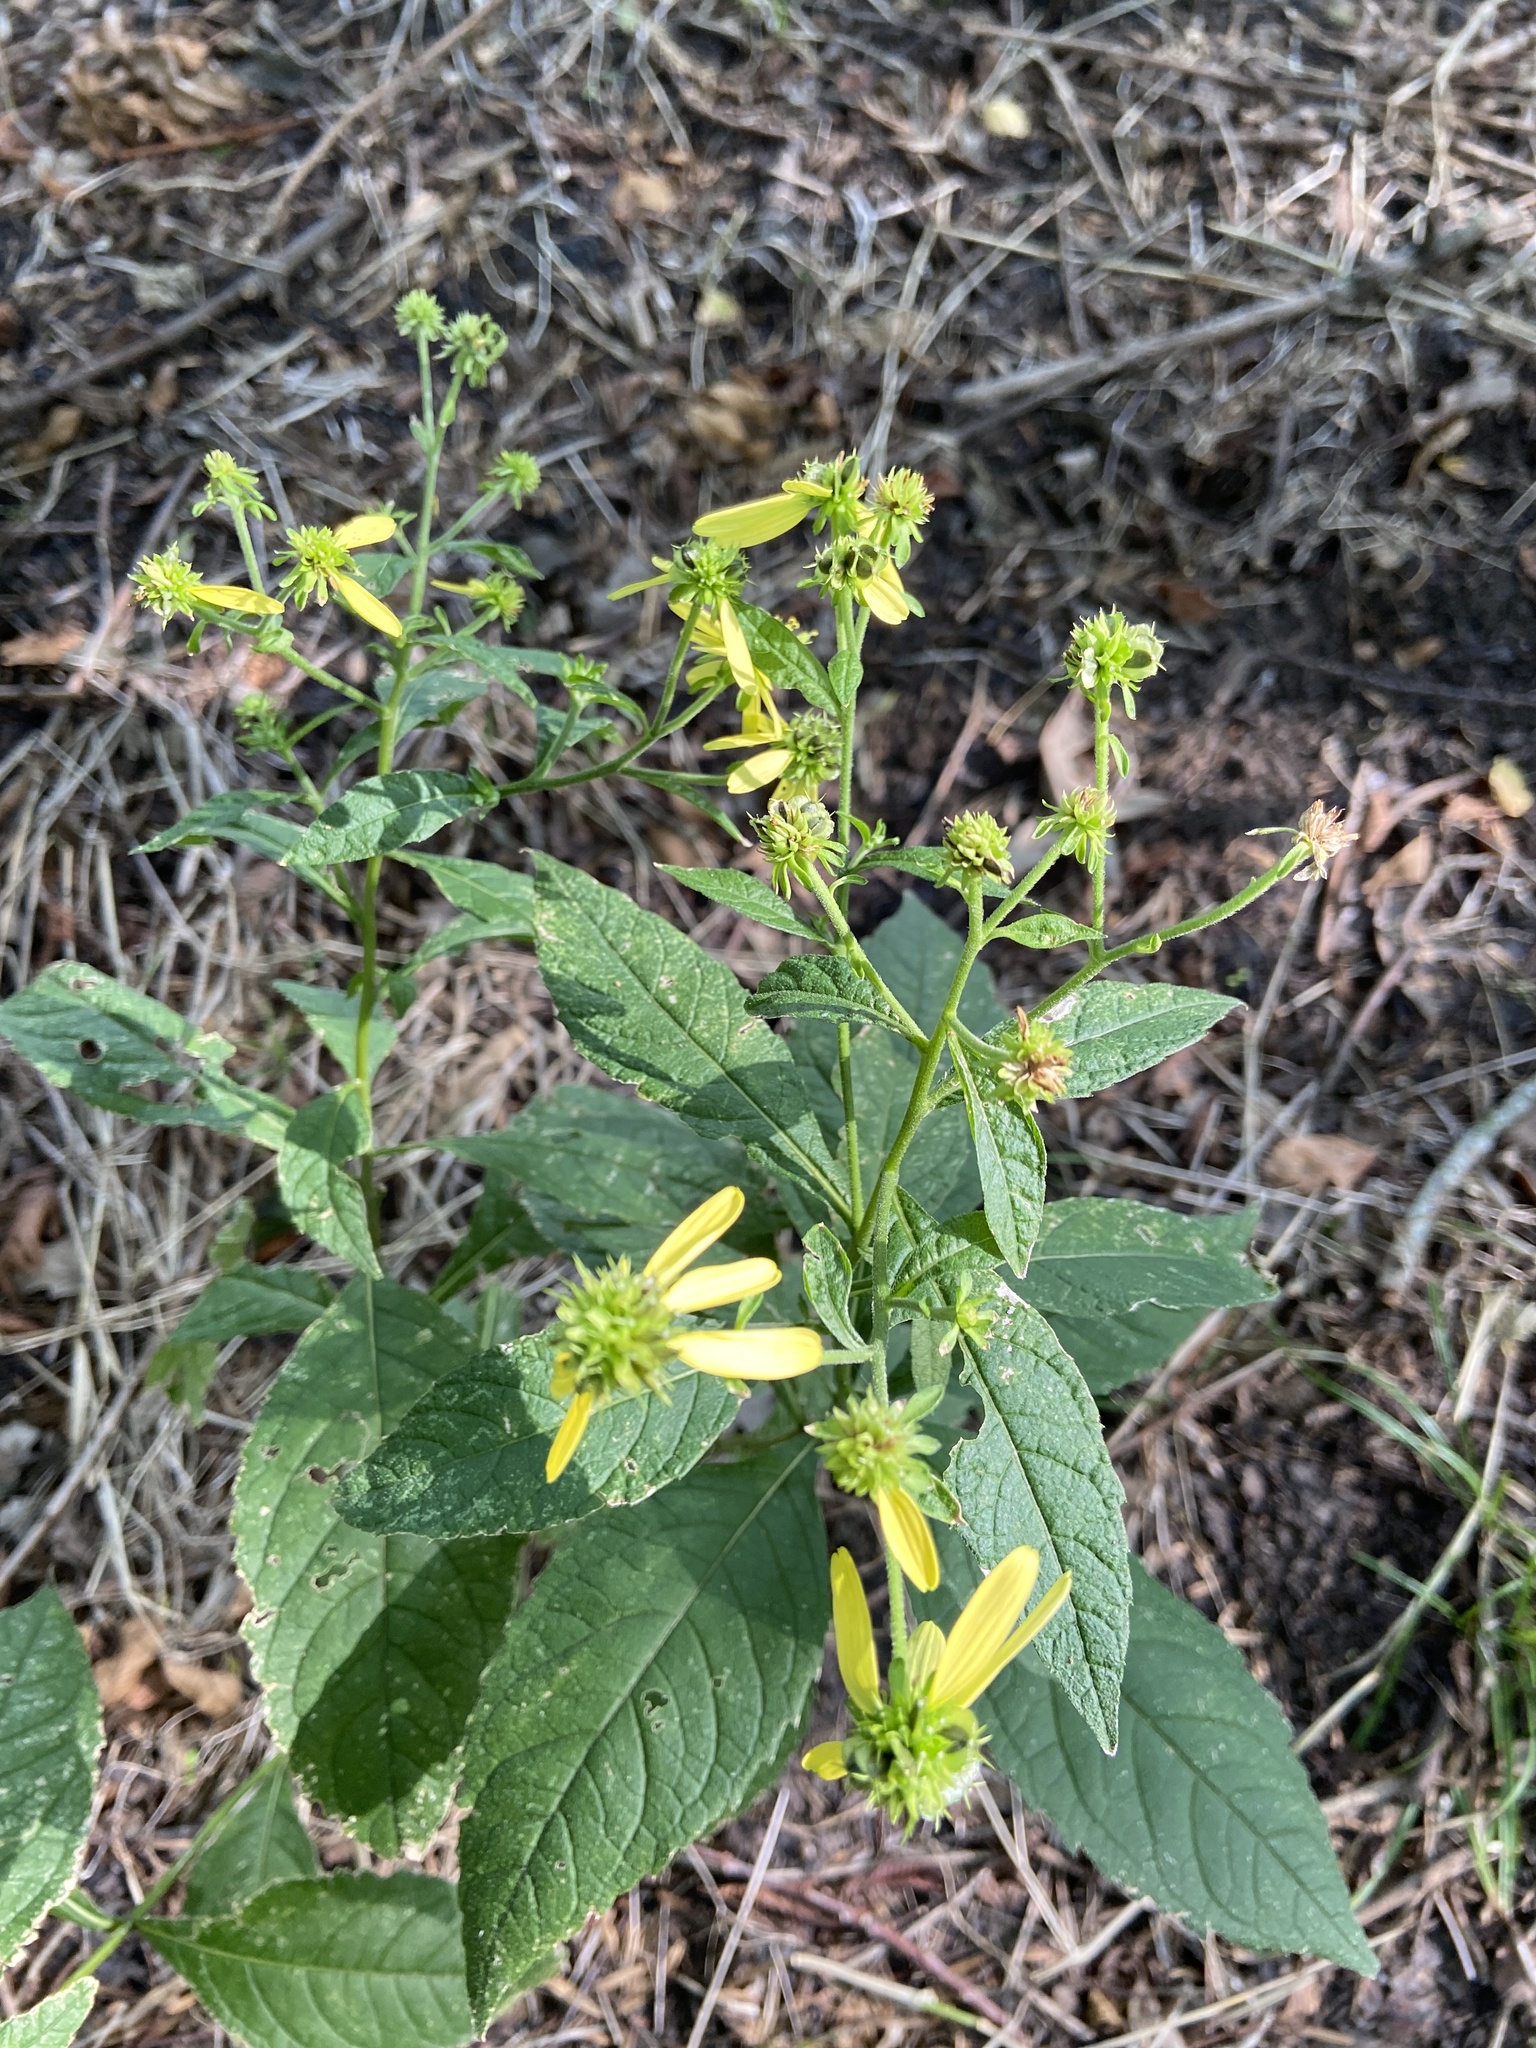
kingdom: Plantae
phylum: Tracheophyta
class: Magnoliopsida
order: Asterales
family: Asteraceae
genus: Verbesina
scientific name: Verbesina alternifolia
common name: Wingstem
